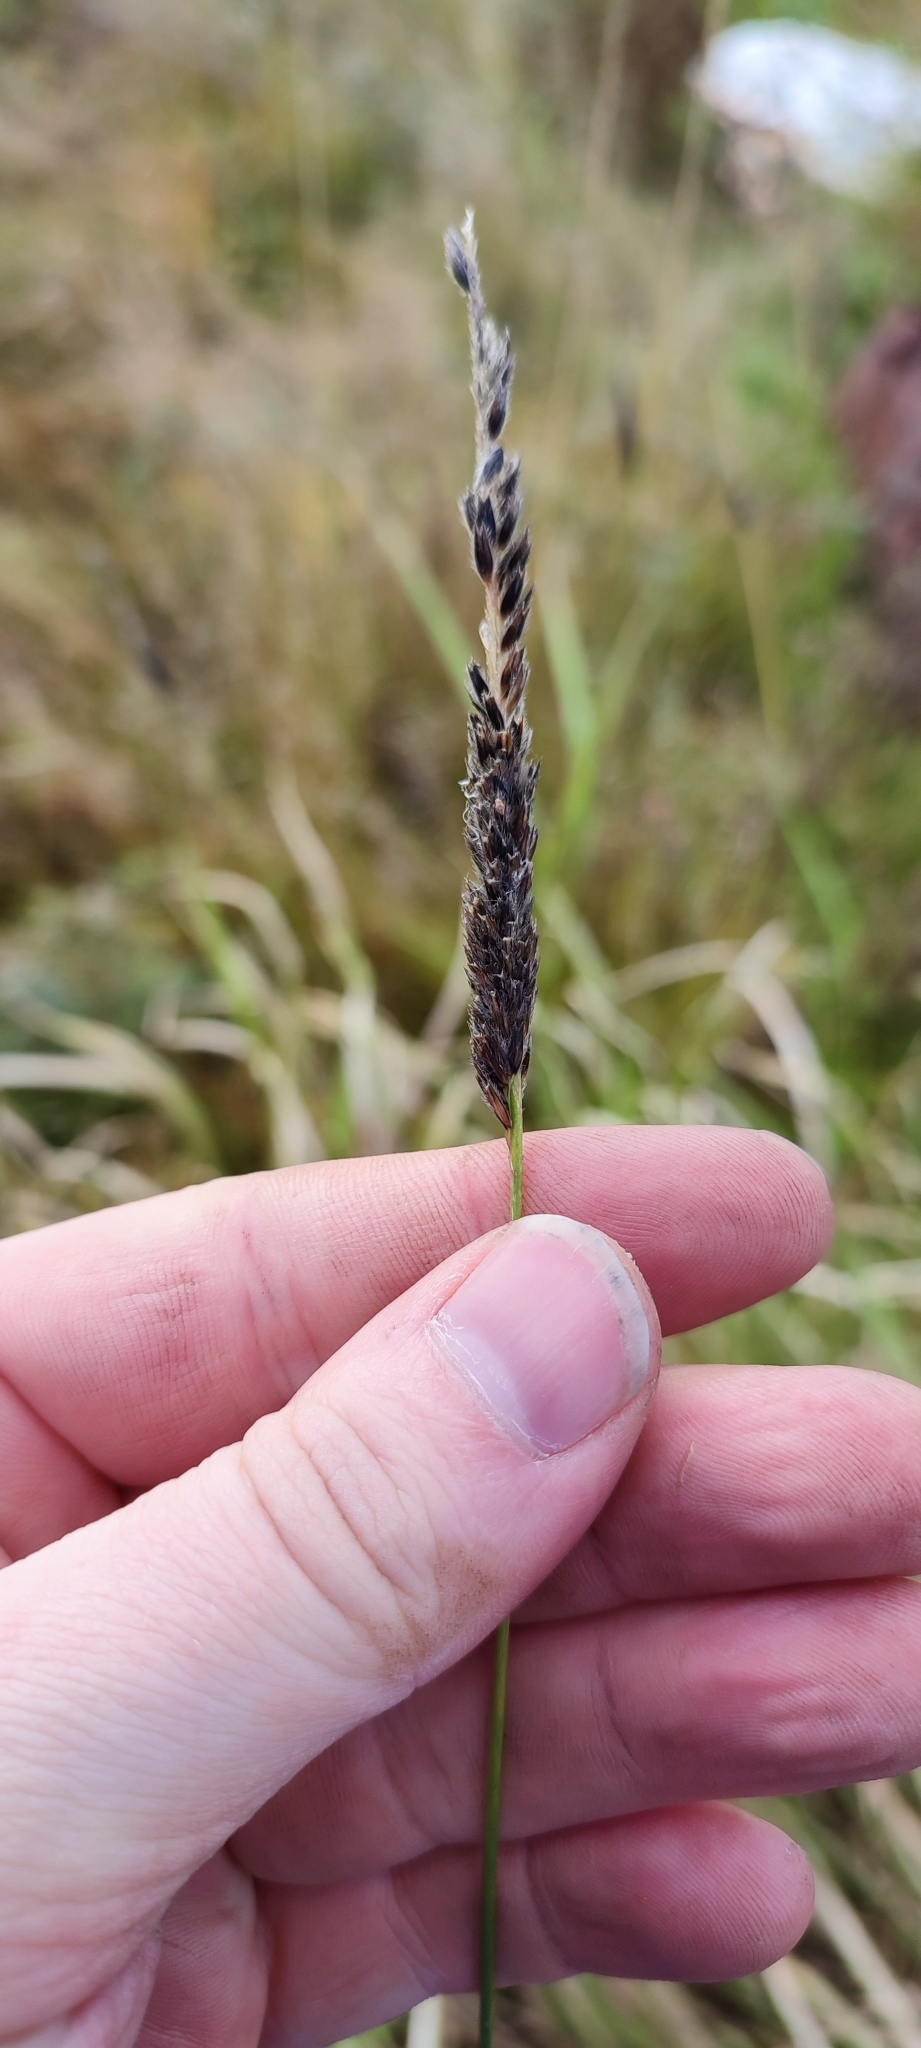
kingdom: Plantae
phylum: Tracheophyta
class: Liliopsida
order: Poales
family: Poaceae
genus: Phleum
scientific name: Phleum pratense
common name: Timothy grass
